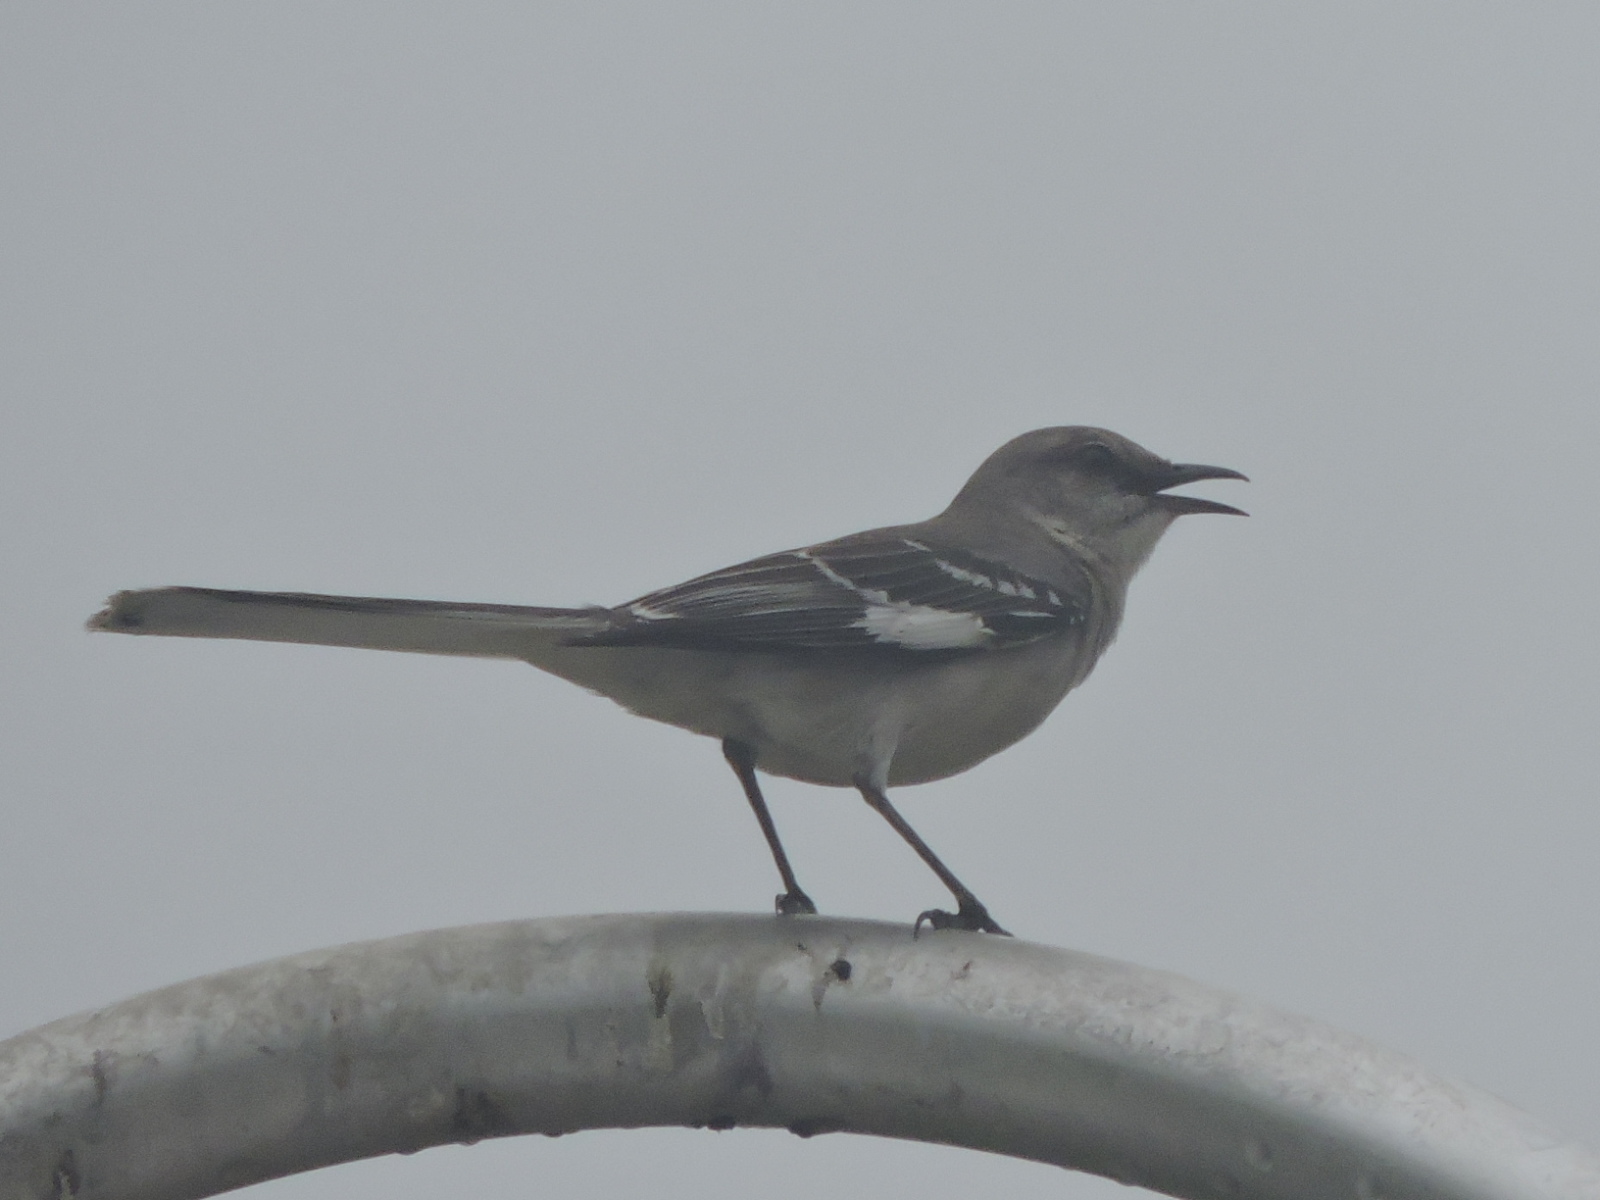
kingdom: Animalia
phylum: Chordata
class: Aves
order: Passeriformes
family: Mimidae
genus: Mimus
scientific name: Mimus polyglottos
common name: Northern mockingbird
